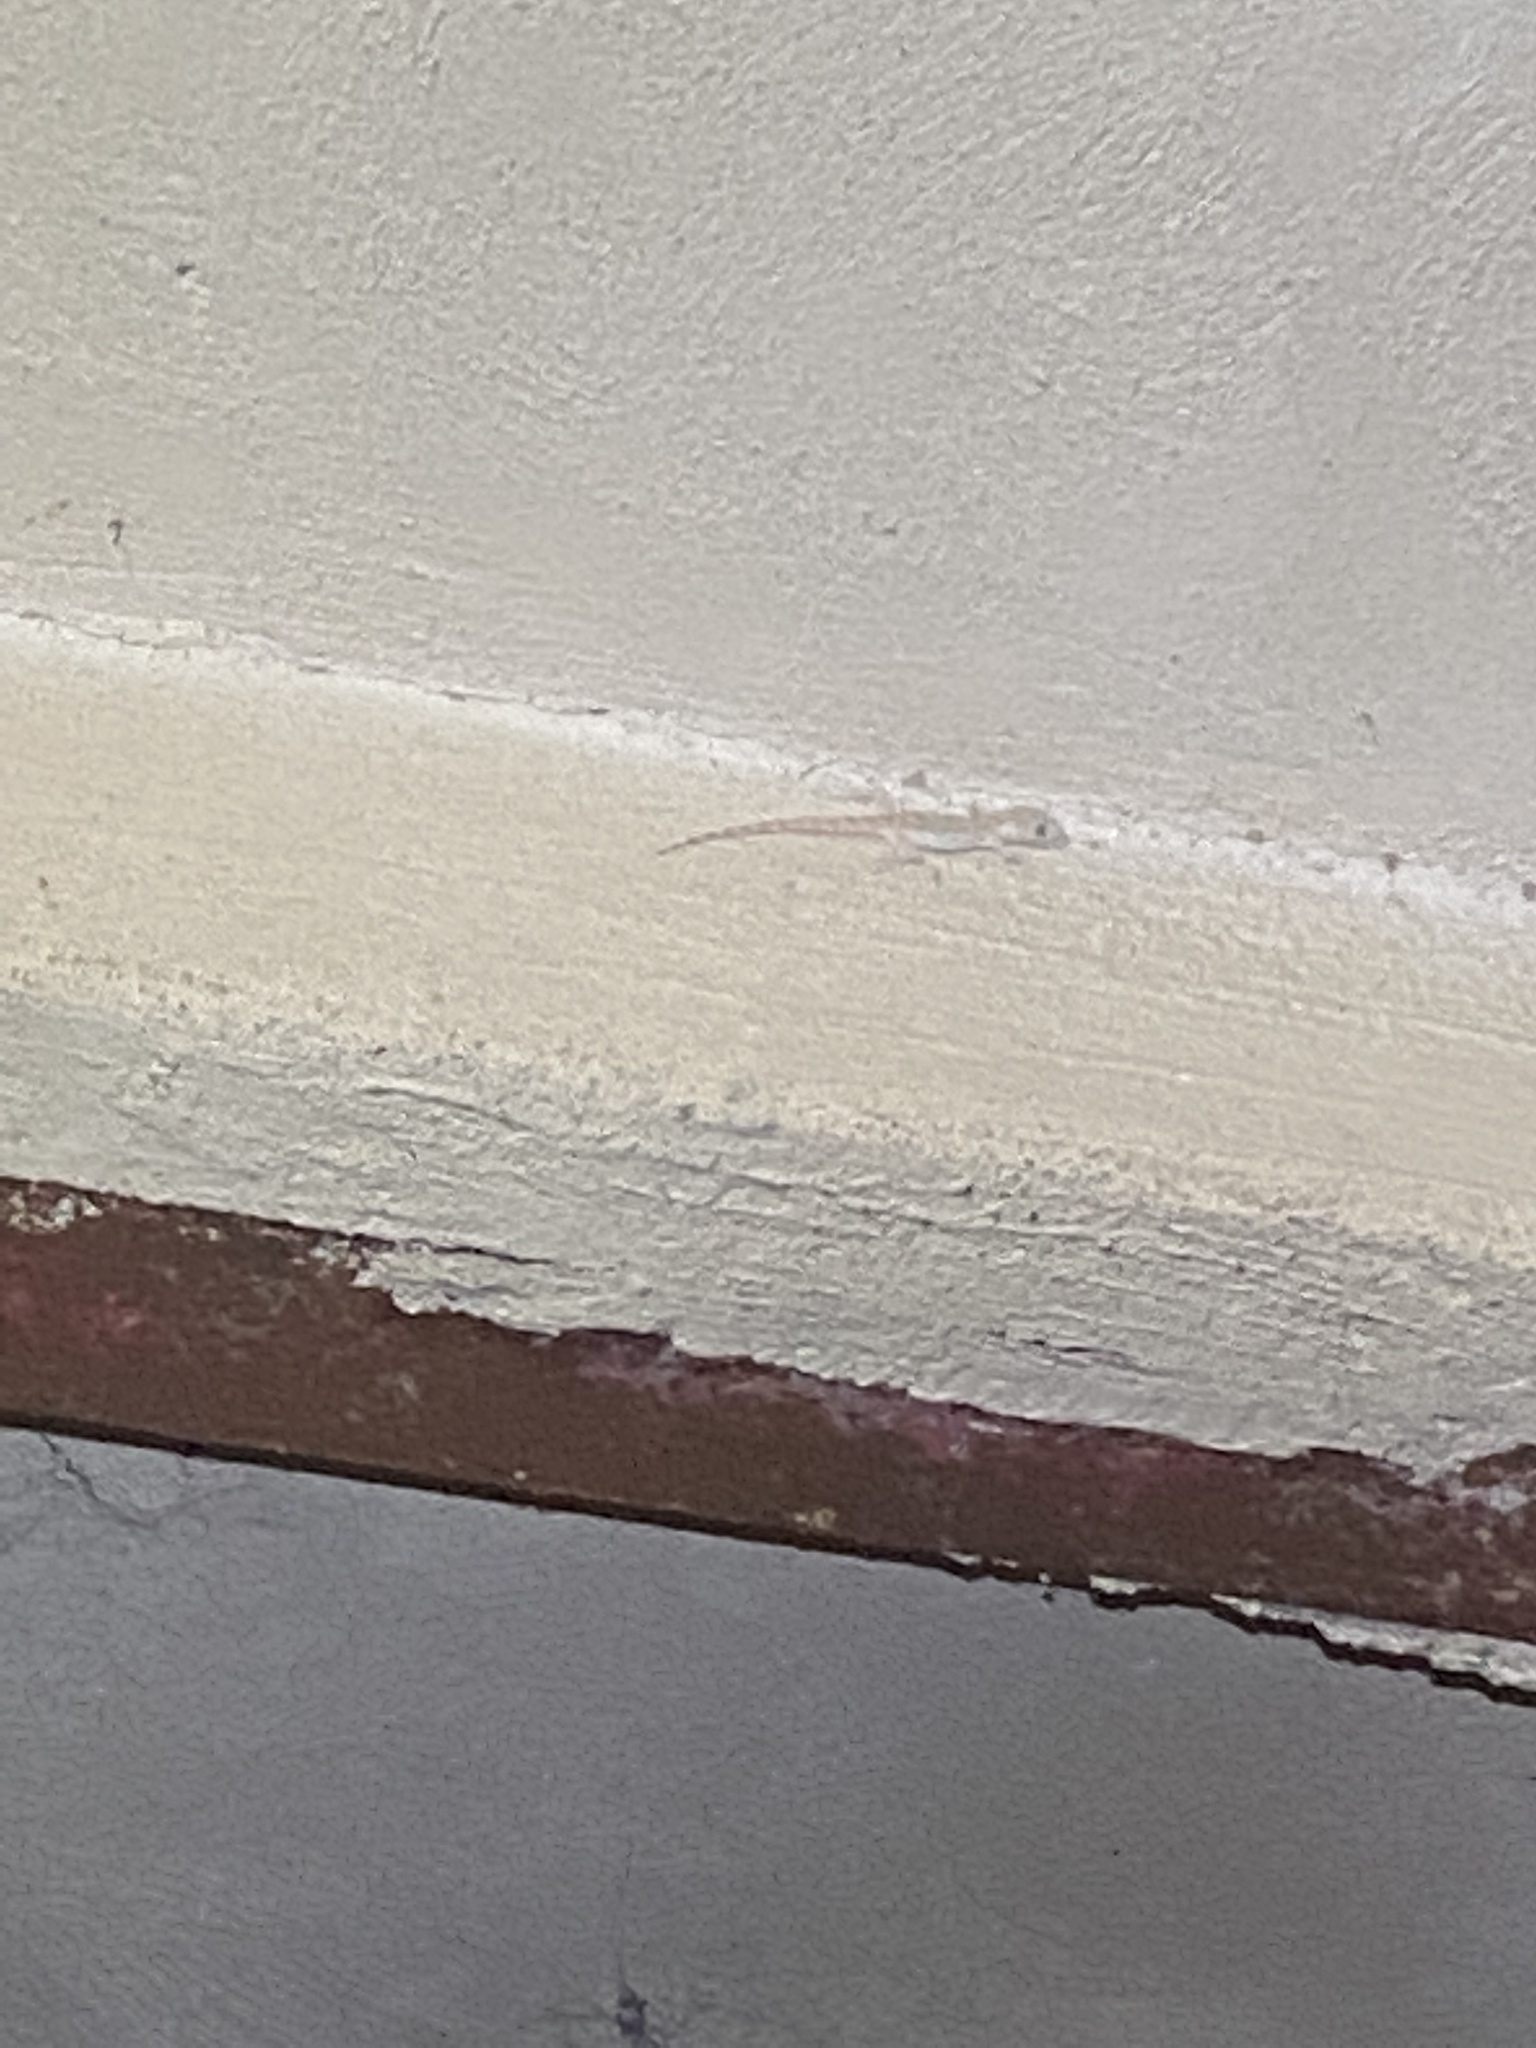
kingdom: Animalia
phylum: Chordata
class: Squamata
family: Gekkonidae
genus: Cyrtopodion
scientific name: Cyrtopodion scabrum
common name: Rough-tailed gecko
